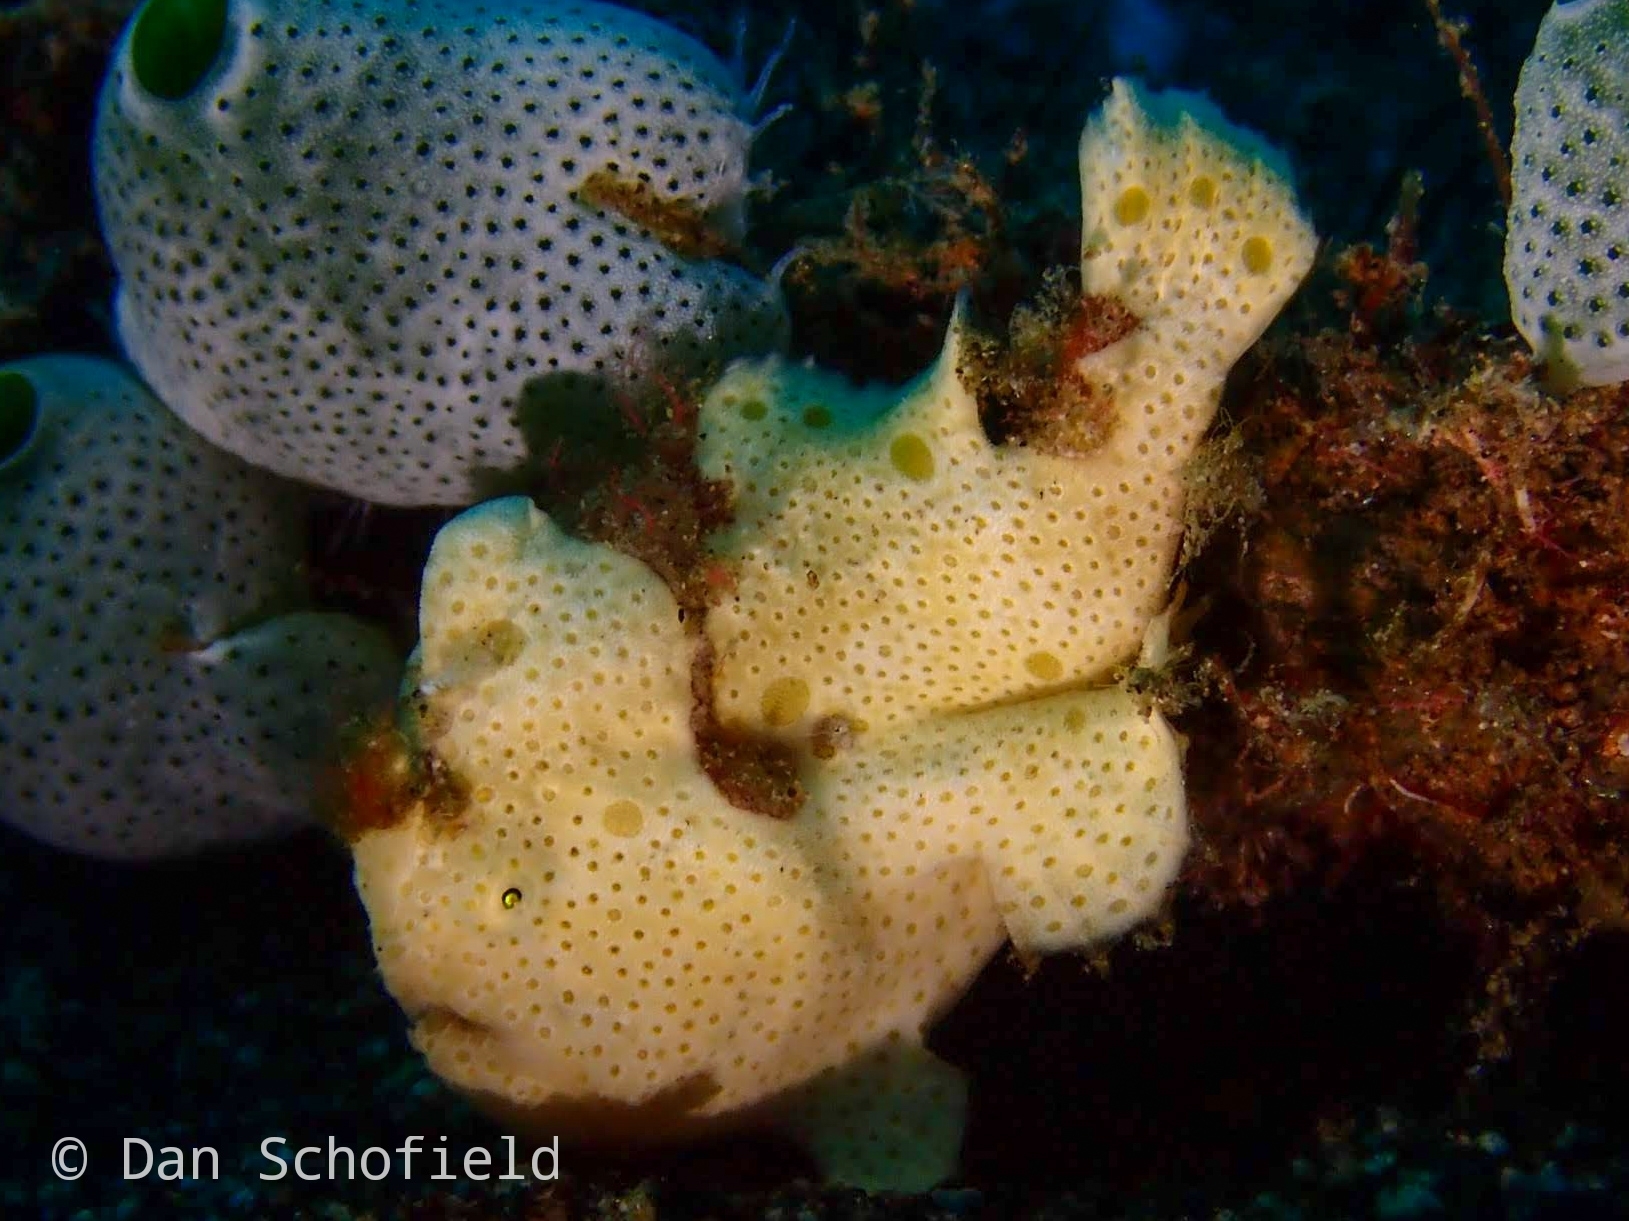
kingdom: Animalia
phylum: Chordata
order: Lophiiformes
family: Antennariidae
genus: Antennarius
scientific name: Antennarius pictus
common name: Painted frogfish
